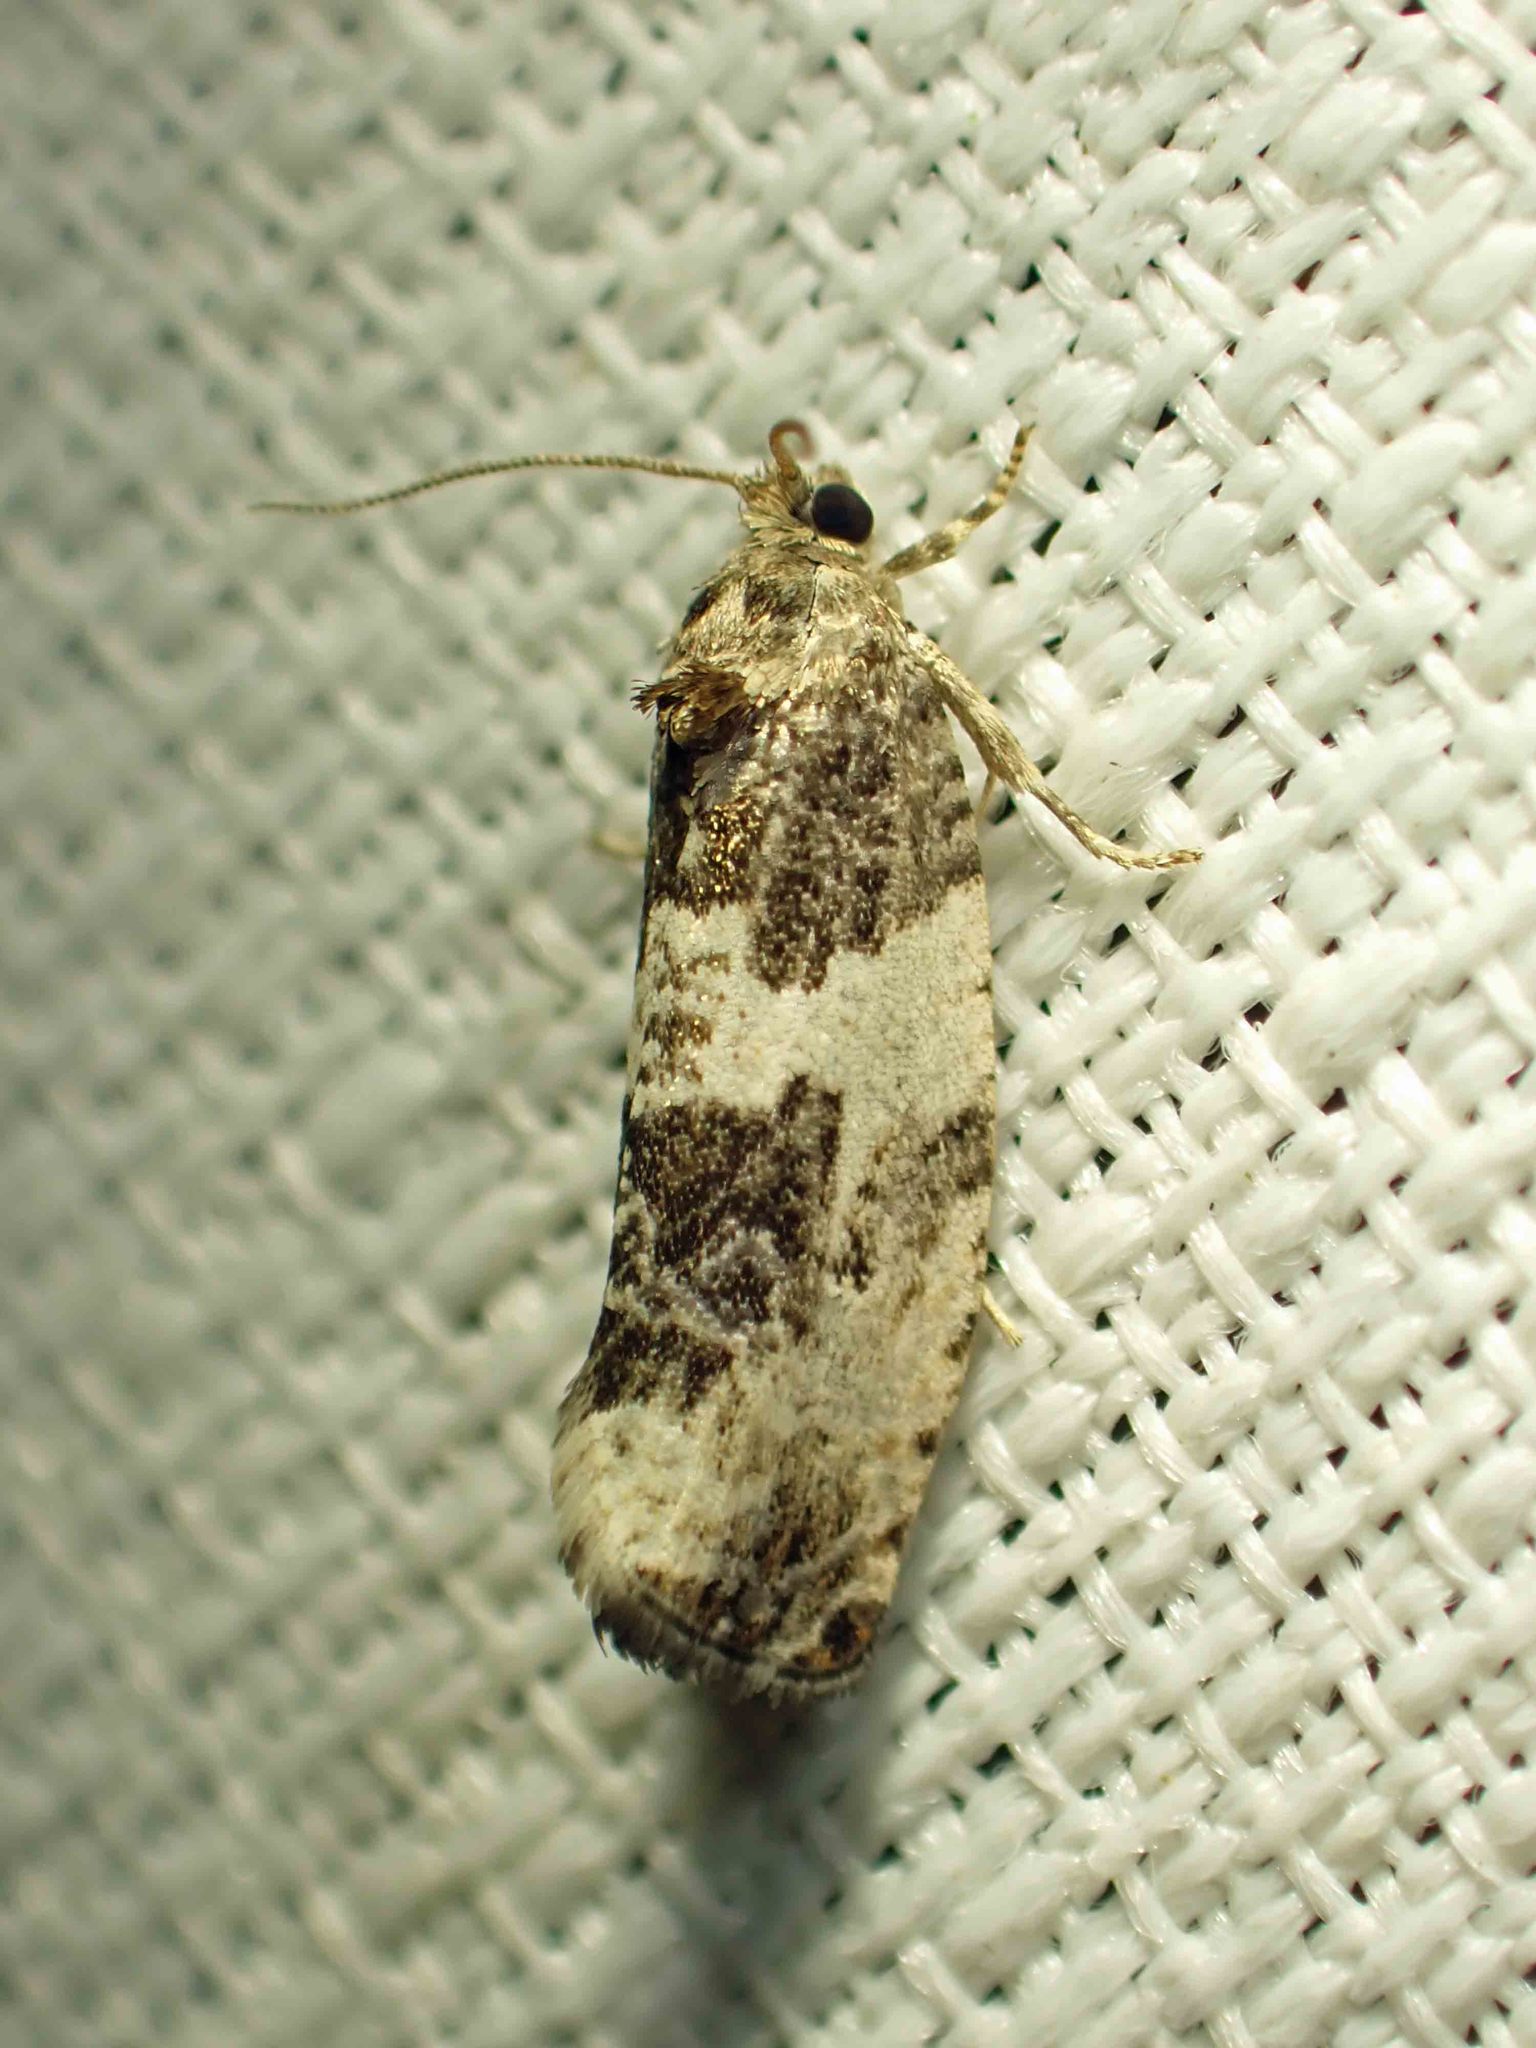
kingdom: Animalia
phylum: Arthropoda
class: Insecta
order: Lepidoptera
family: Tortricidae
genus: Pseudosciaphila
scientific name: Pseudosciaphila duplex
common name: Poplar leafroller moth
